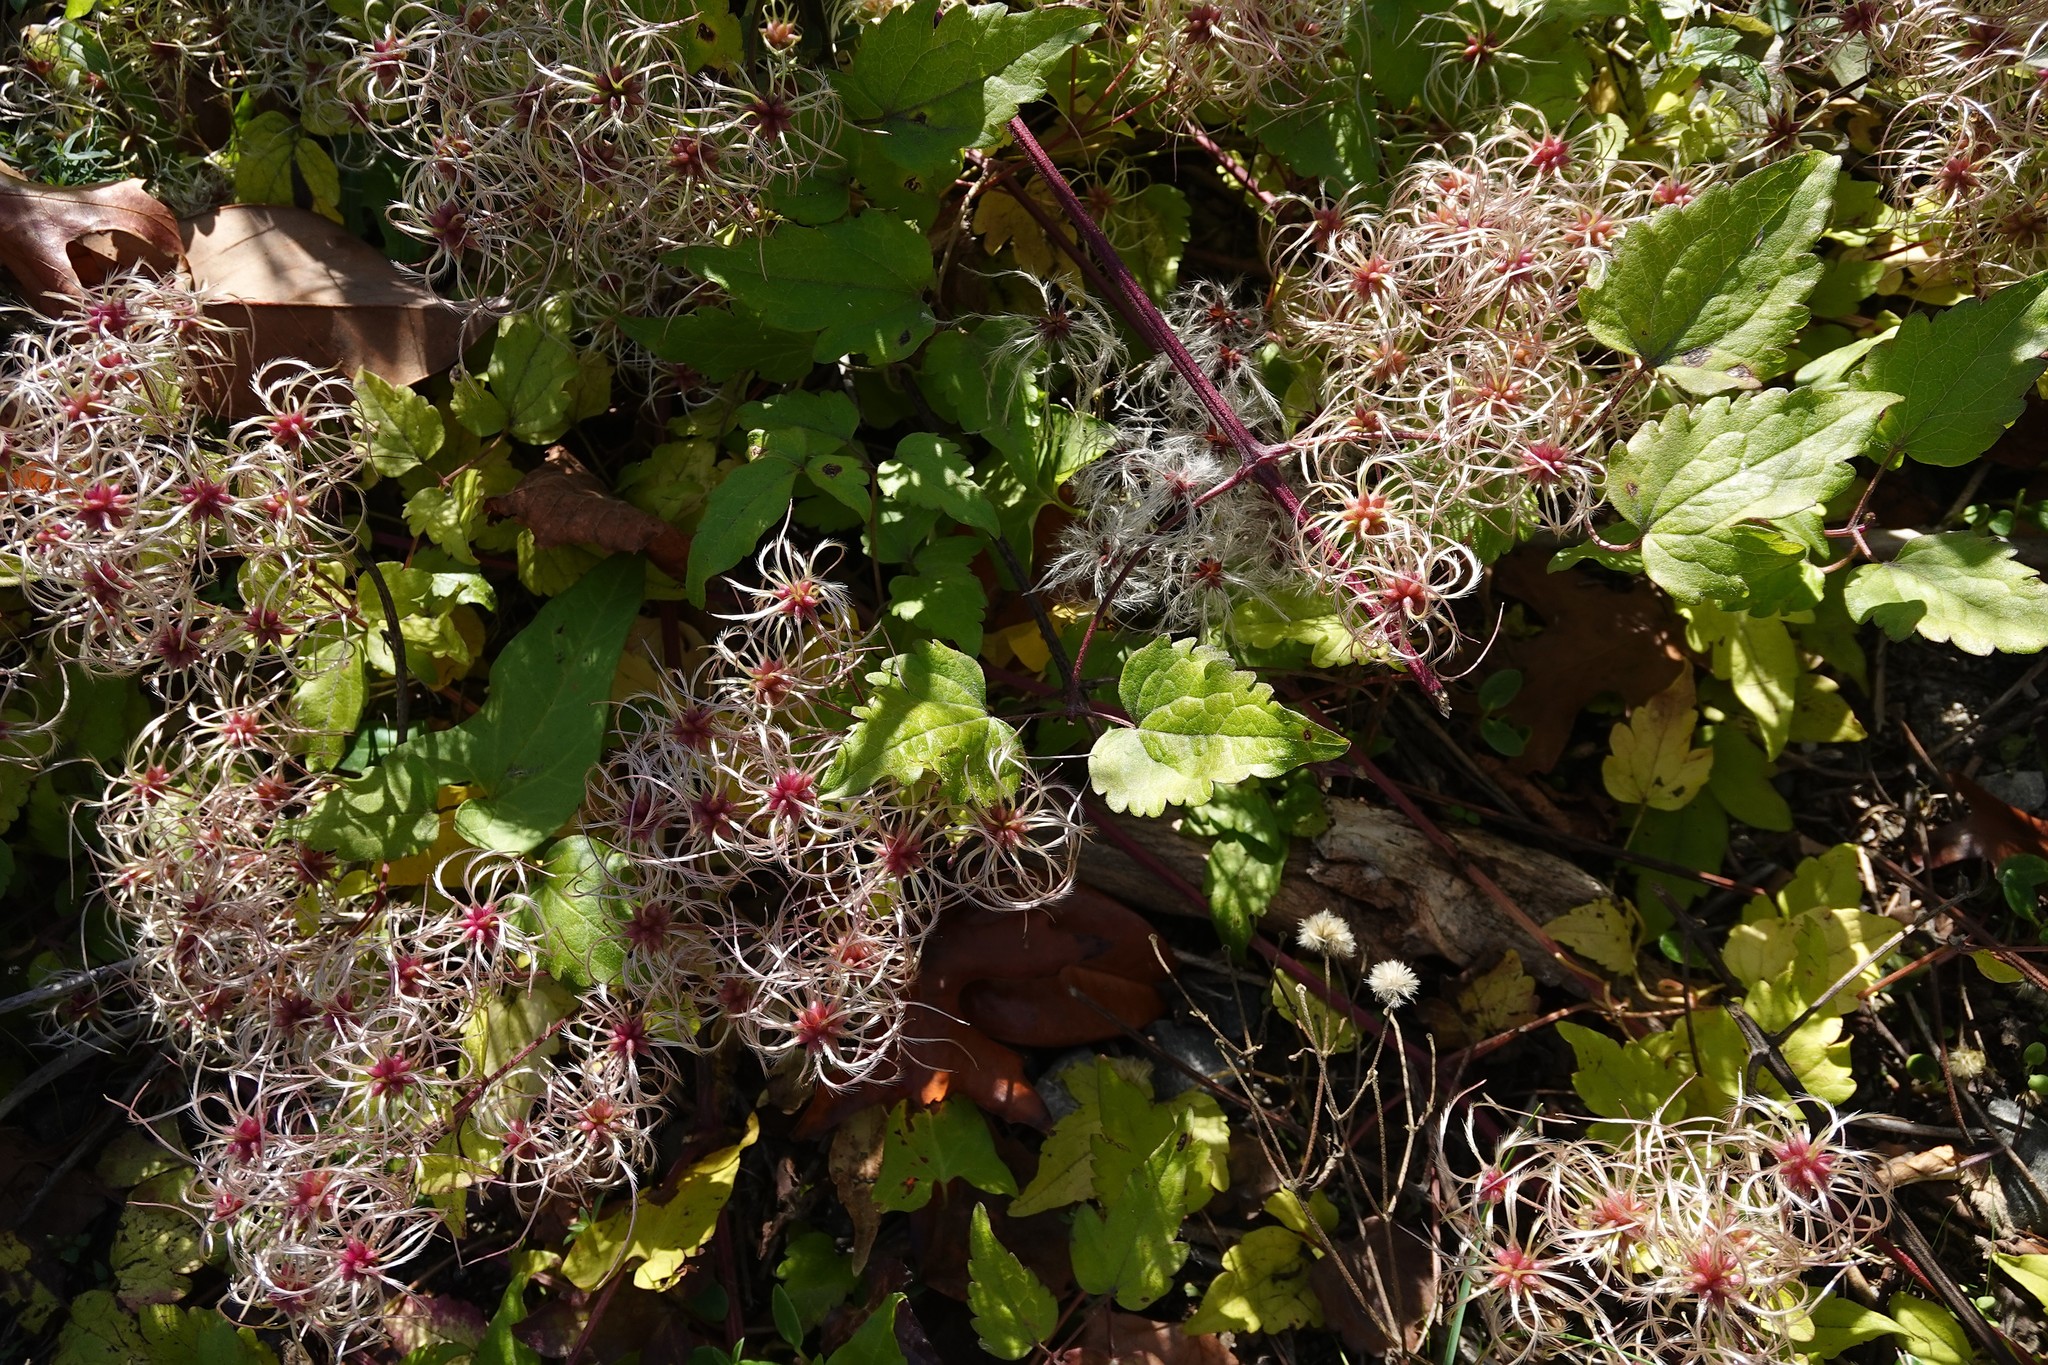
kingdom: Plantae
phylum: Tracheophyta
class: Magnoliopsida
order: Ranunculales
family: Ranunculaceae
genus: Clematis
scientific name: Clematis vitalba
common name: Evergreen clematis
